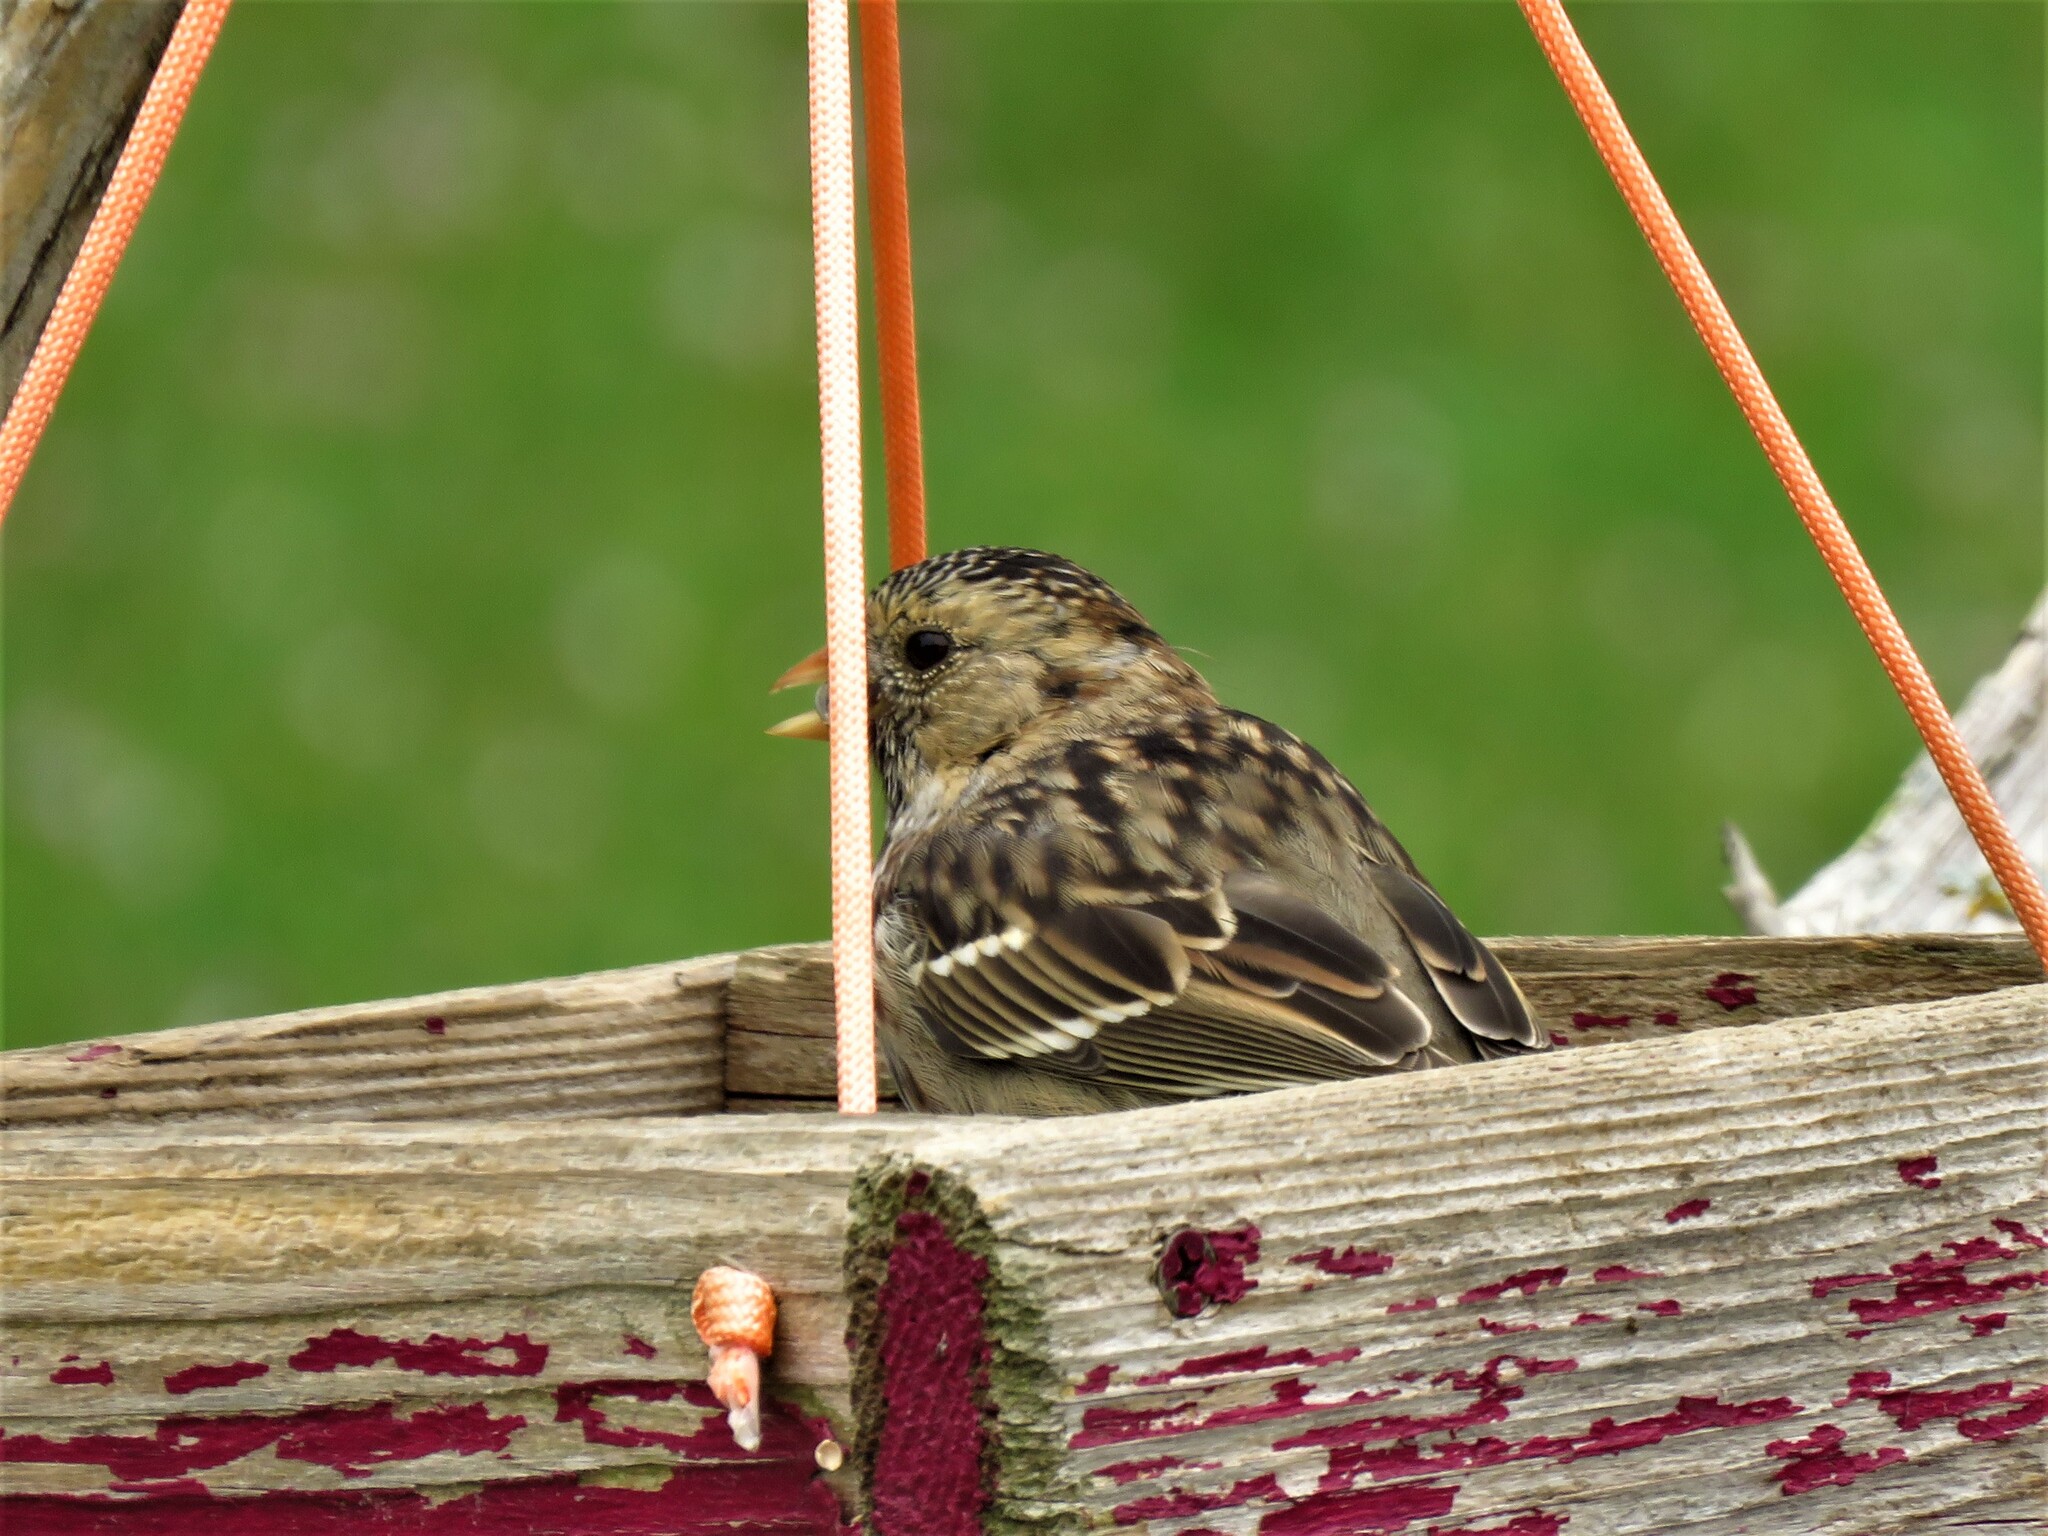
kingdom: Animalia
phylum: Chordata
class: Aves
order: Passeriformes
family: Passerellidae
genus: Zonotrichia
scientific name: Zonotrichia querula
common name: Harris's sparrow
